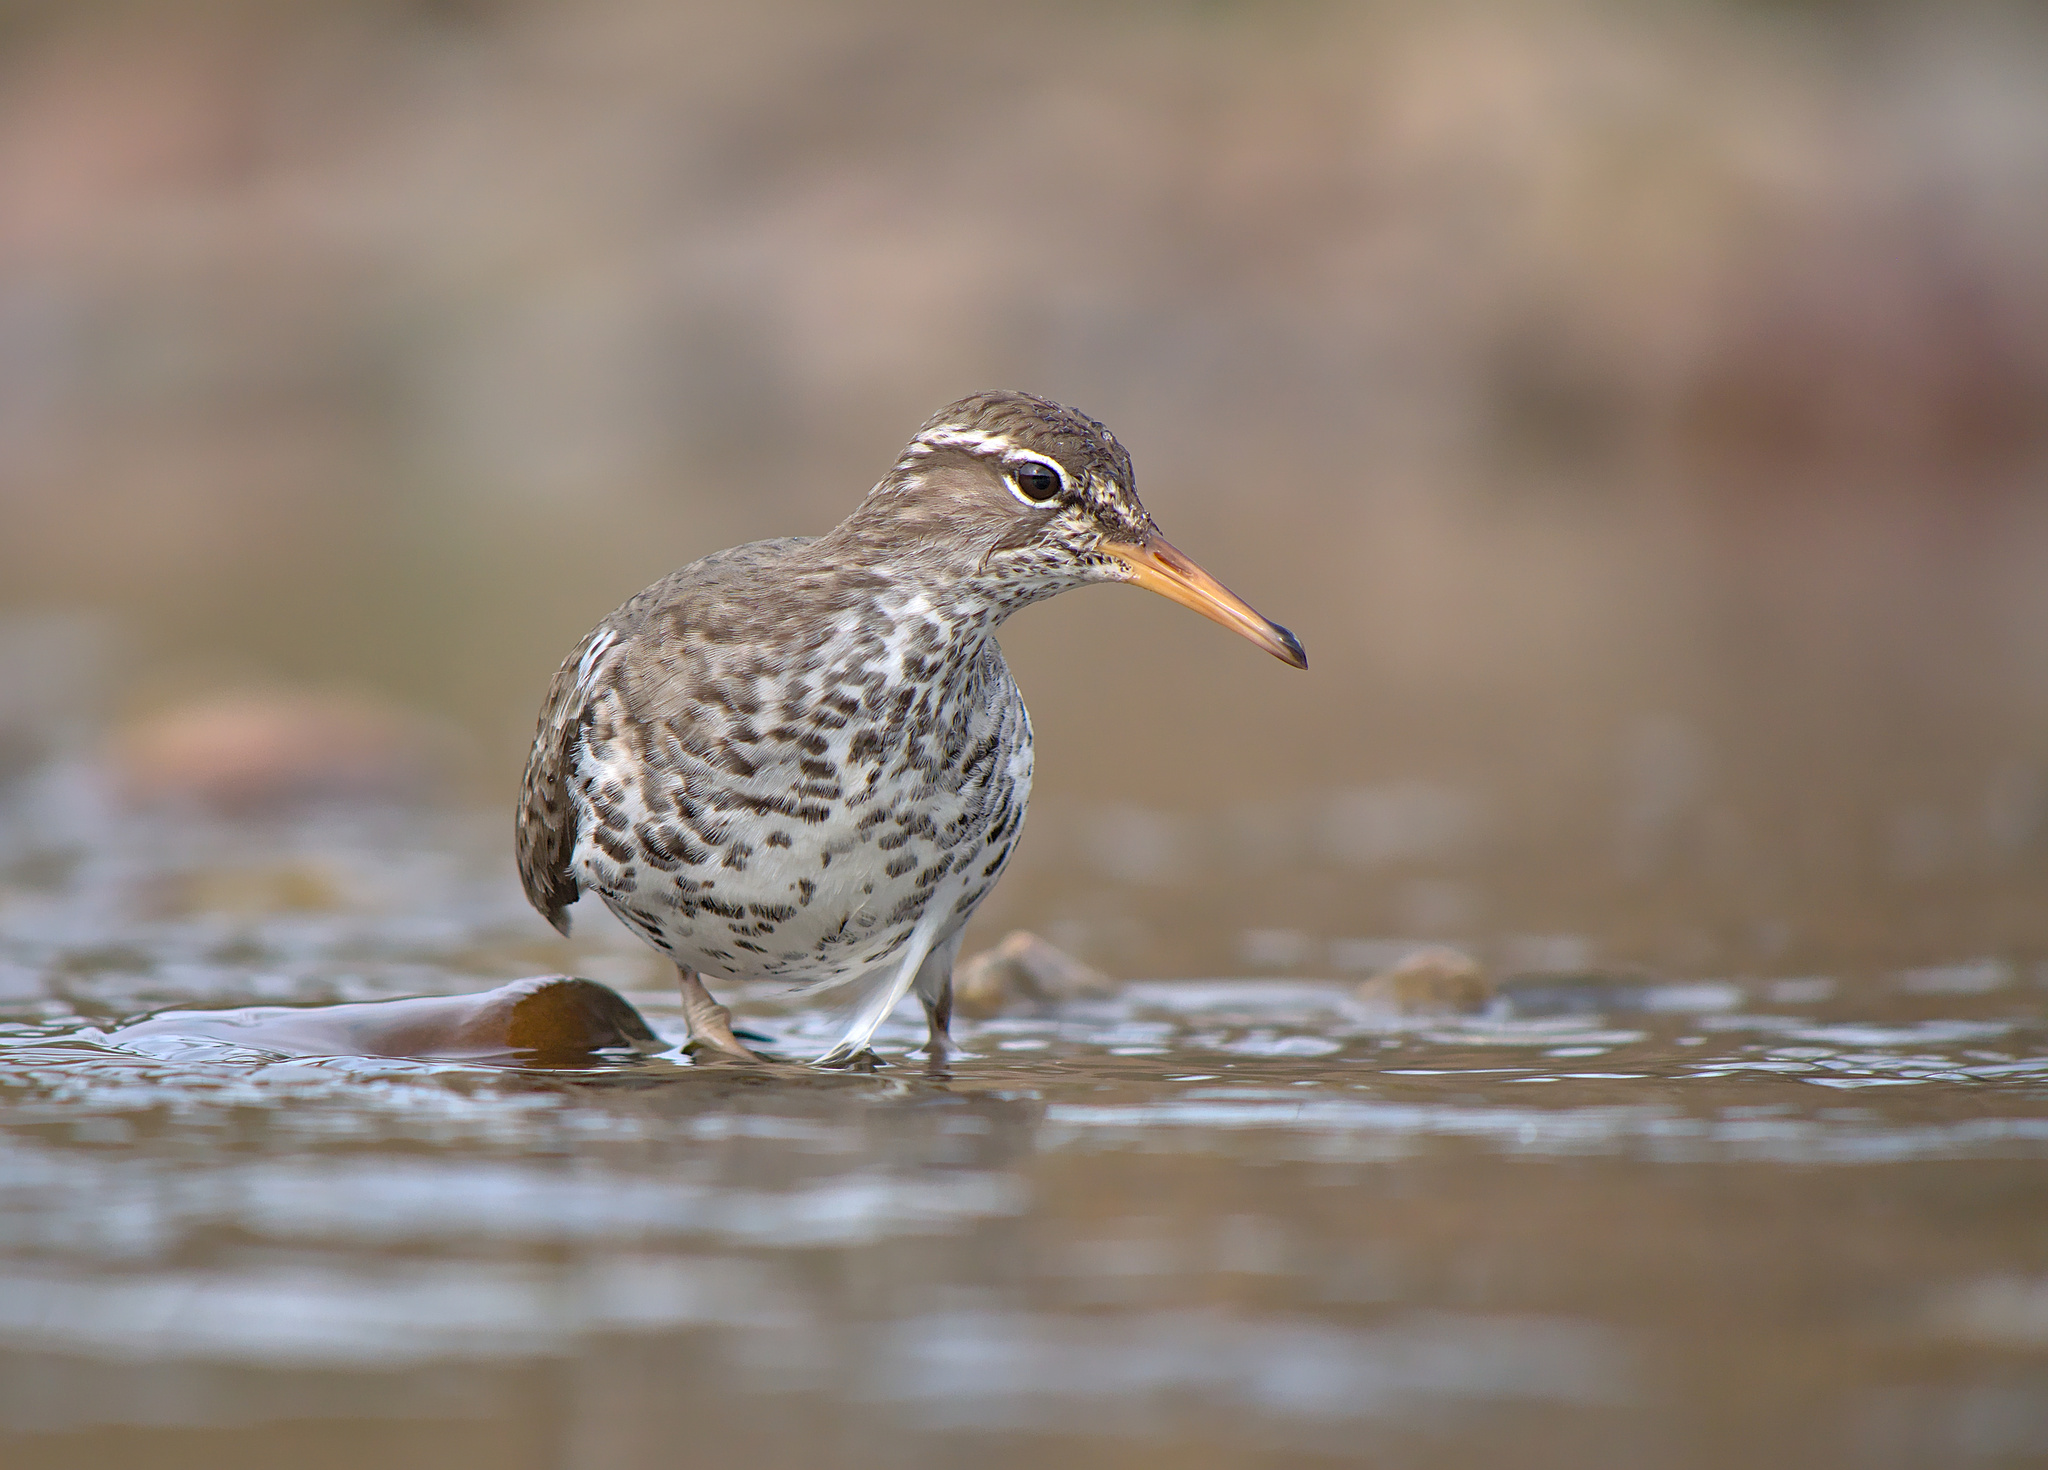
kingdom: Animalia
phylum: Chordata
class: Aves
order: Charadriiformes
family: Scolopacidae
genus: Actitis
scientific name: Actitis macularius
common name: Spotted sandpiper
